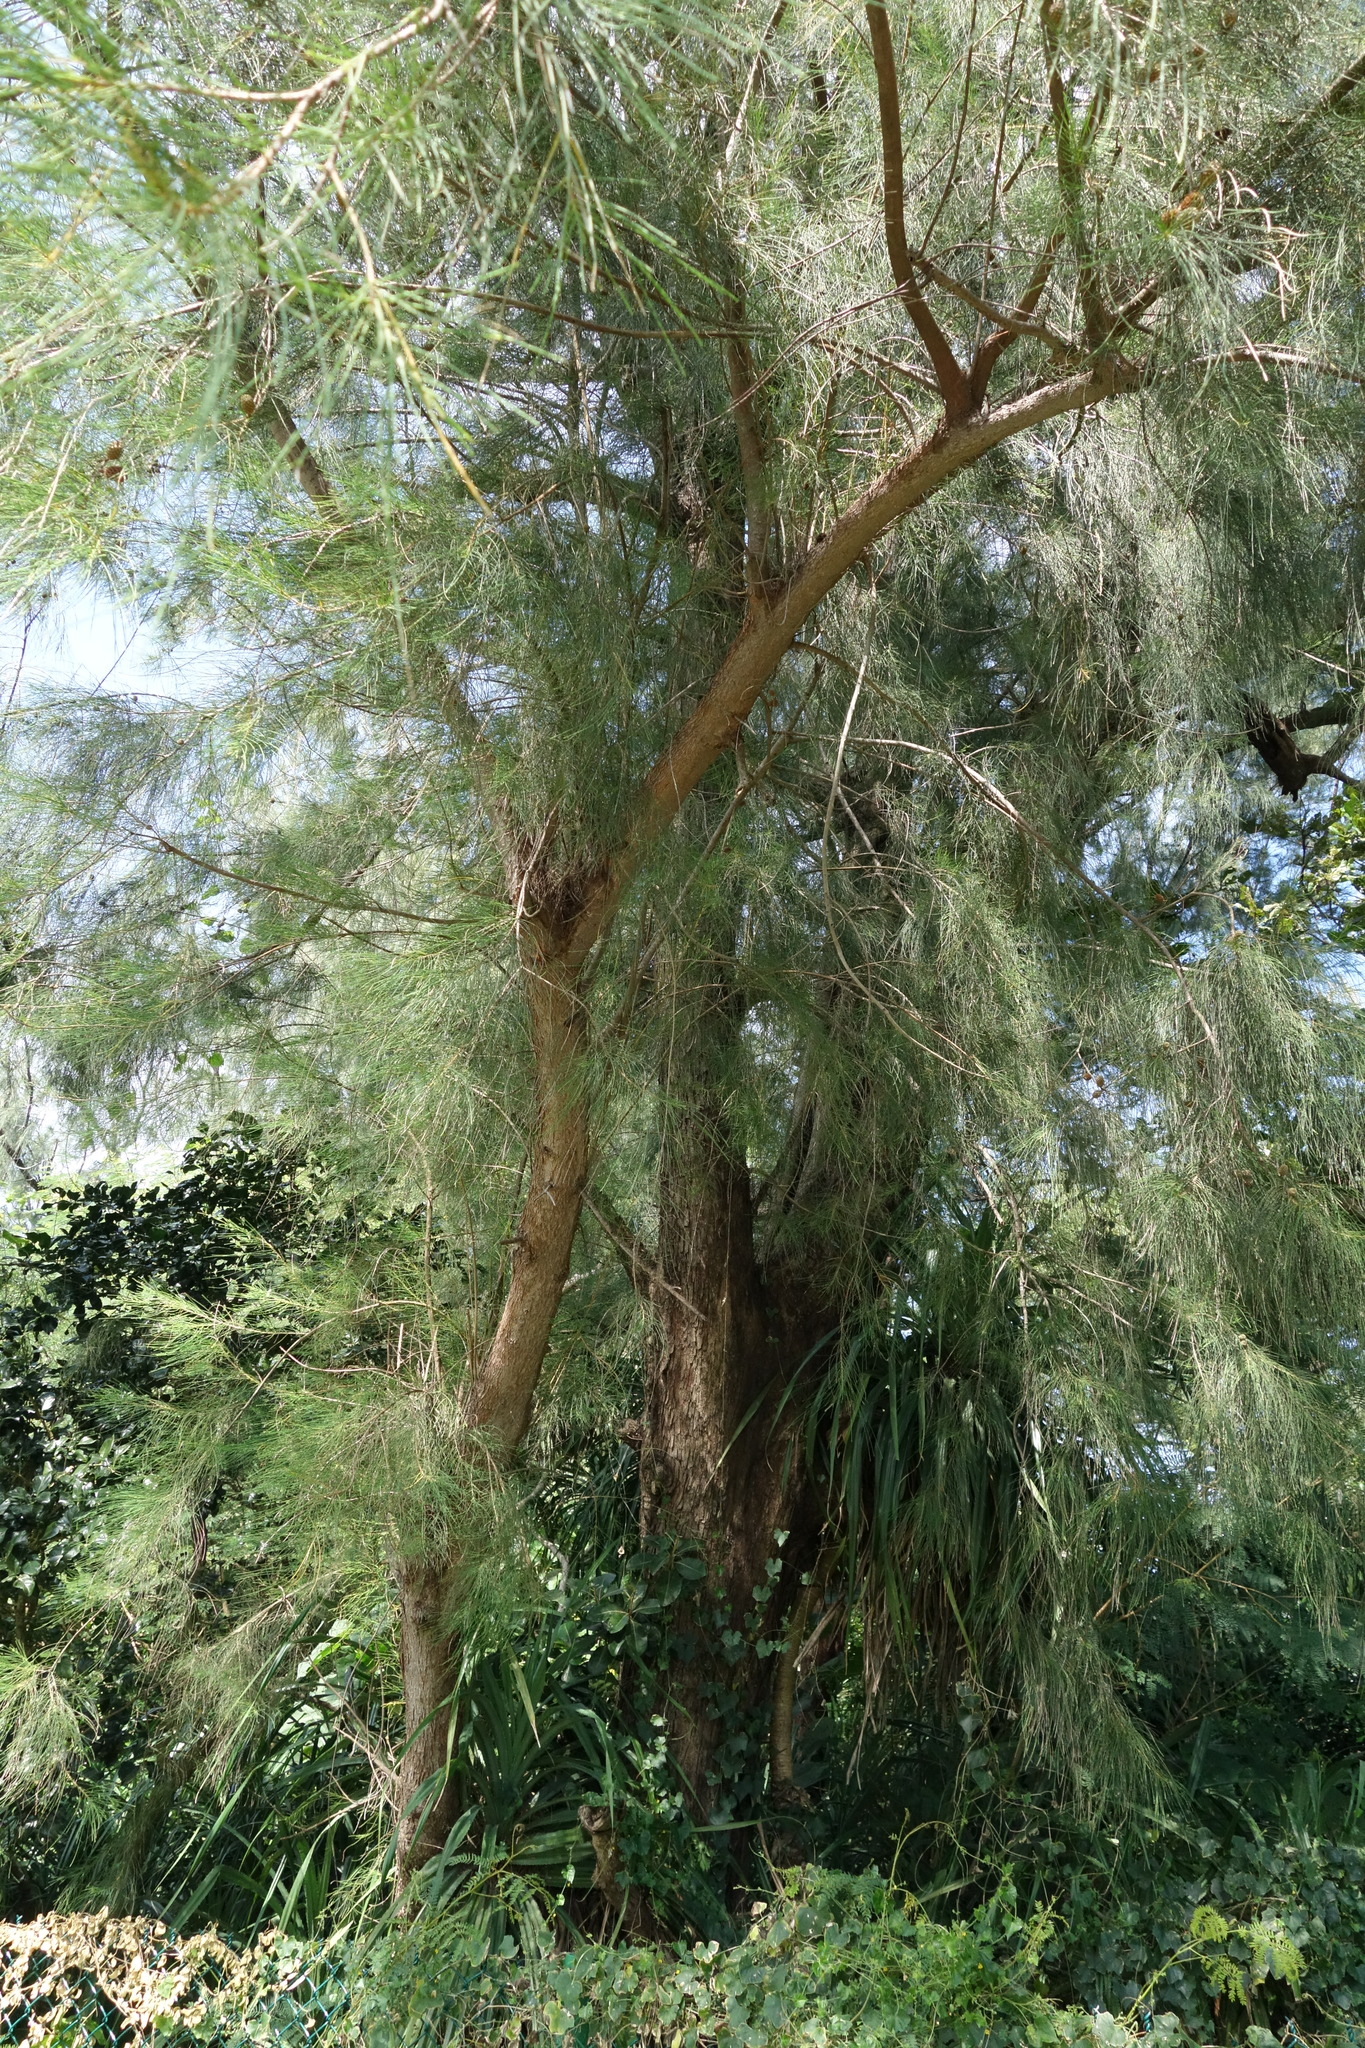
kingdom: Plantae
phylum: Tracheophyta
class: Magnoliopsida
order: Fagales
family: Casuarinaceae
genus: Casuarina
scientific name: Casuarina equisetifolia
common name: Beach sheoak
